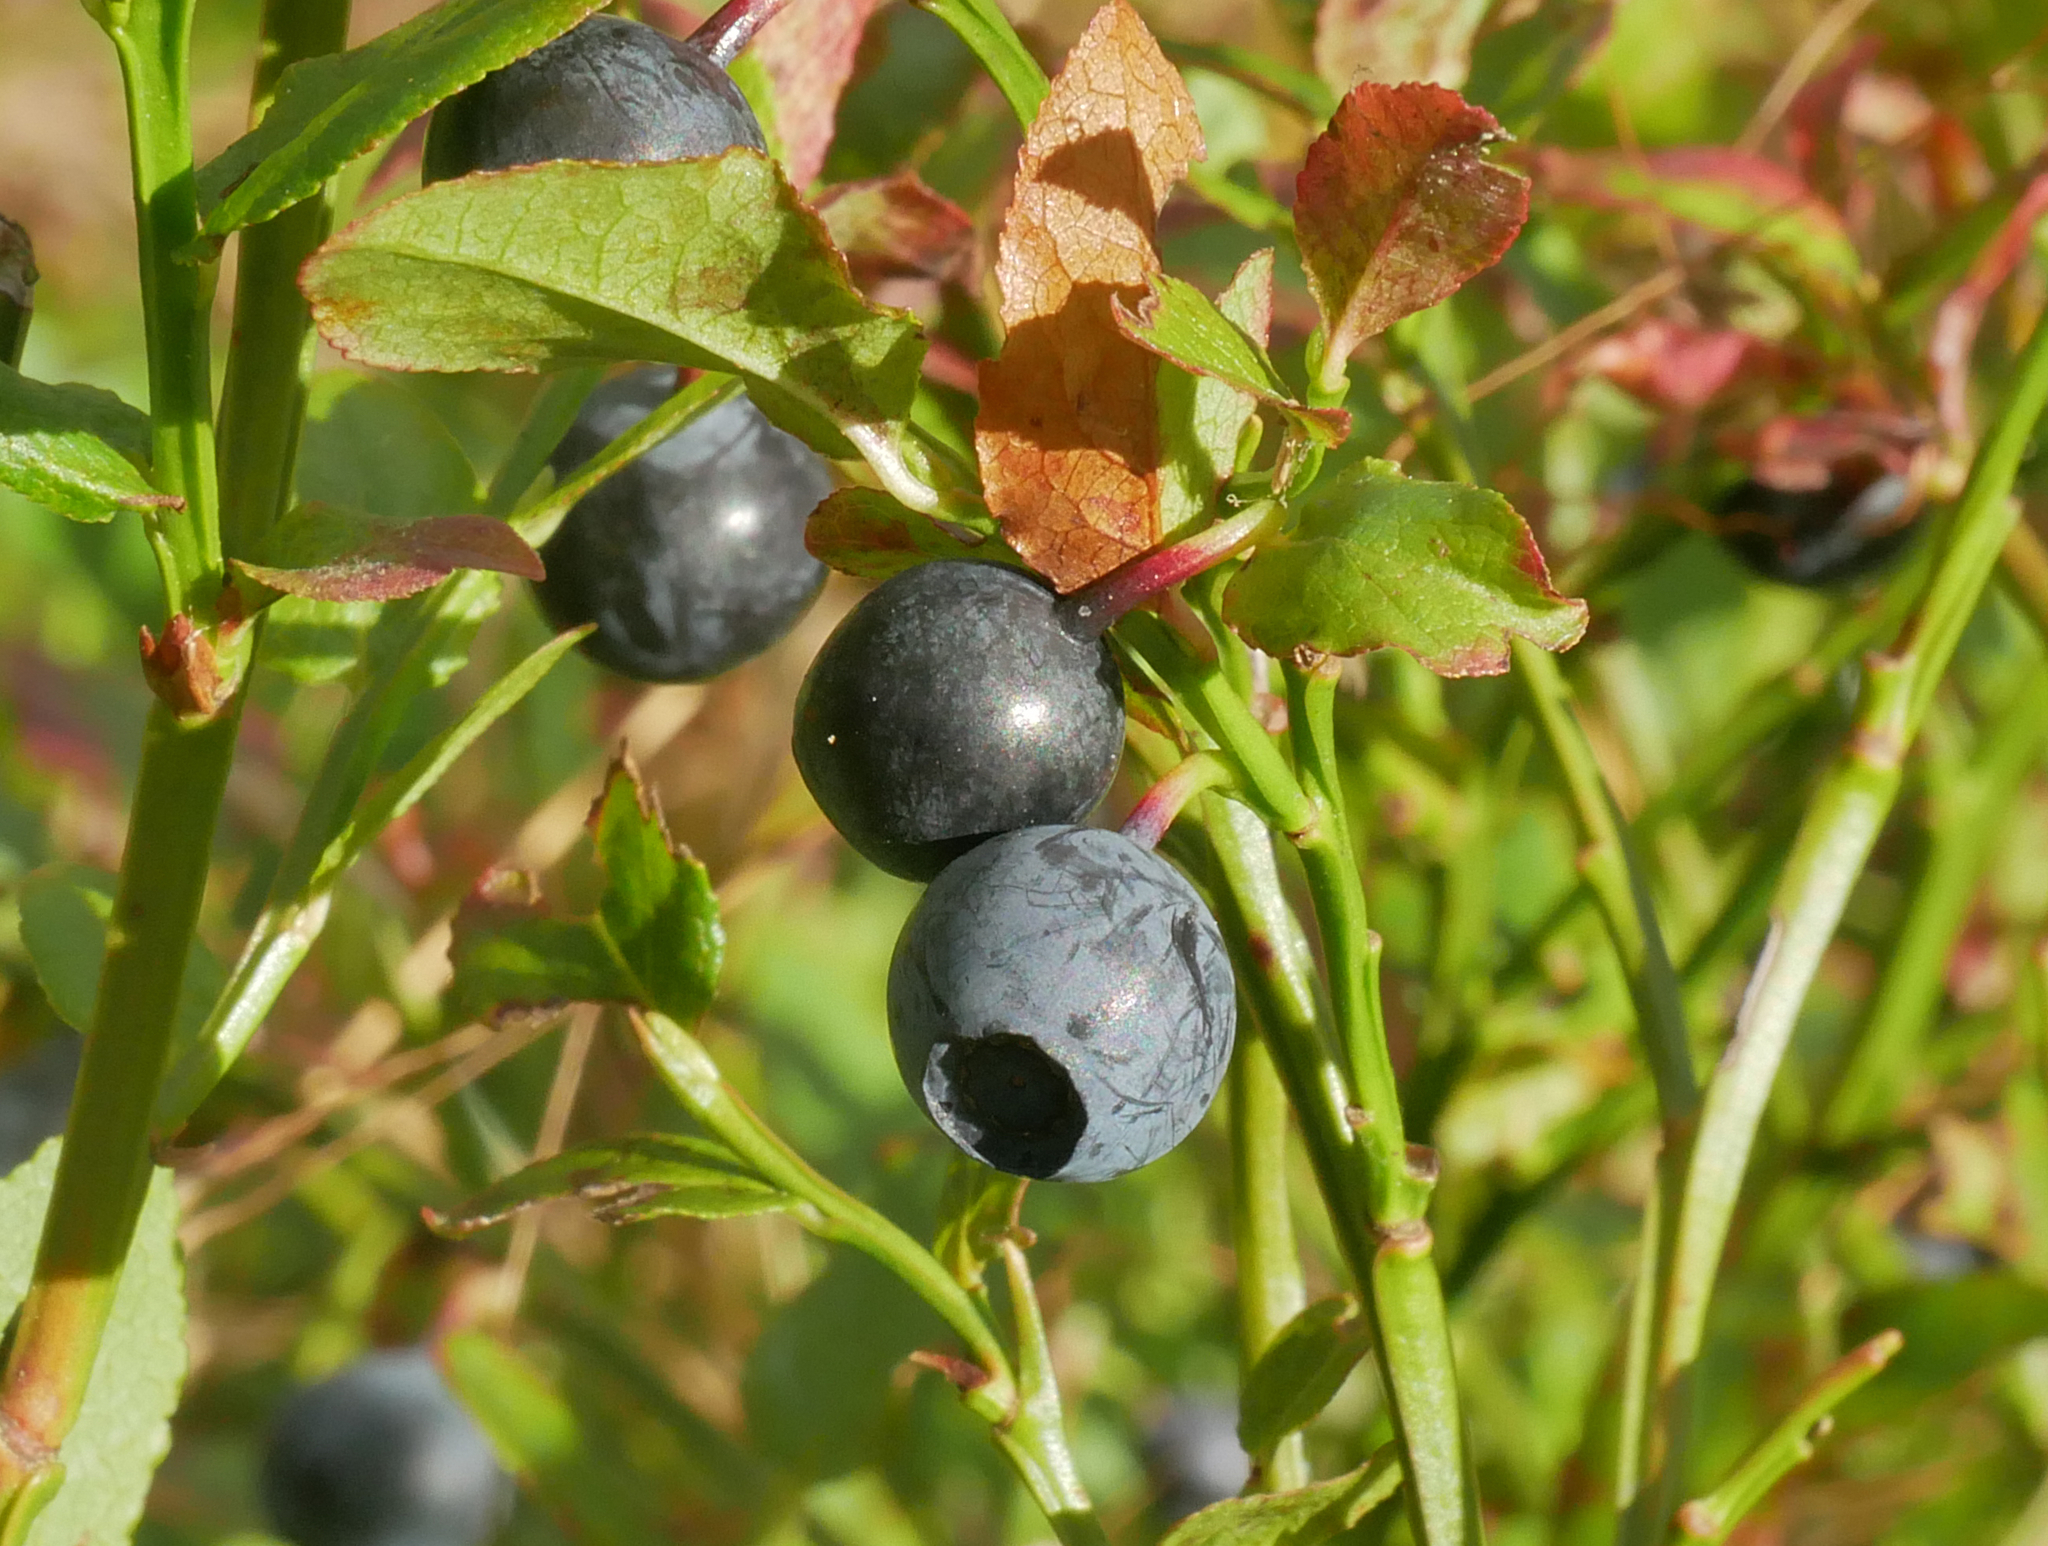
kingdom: Plantae
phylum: Tracheophyta
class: Magnoliopsida
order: Ericales
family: Ericaceae
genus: Vaccinium
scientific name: Vaccinium myrtillus
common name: Bilberry
